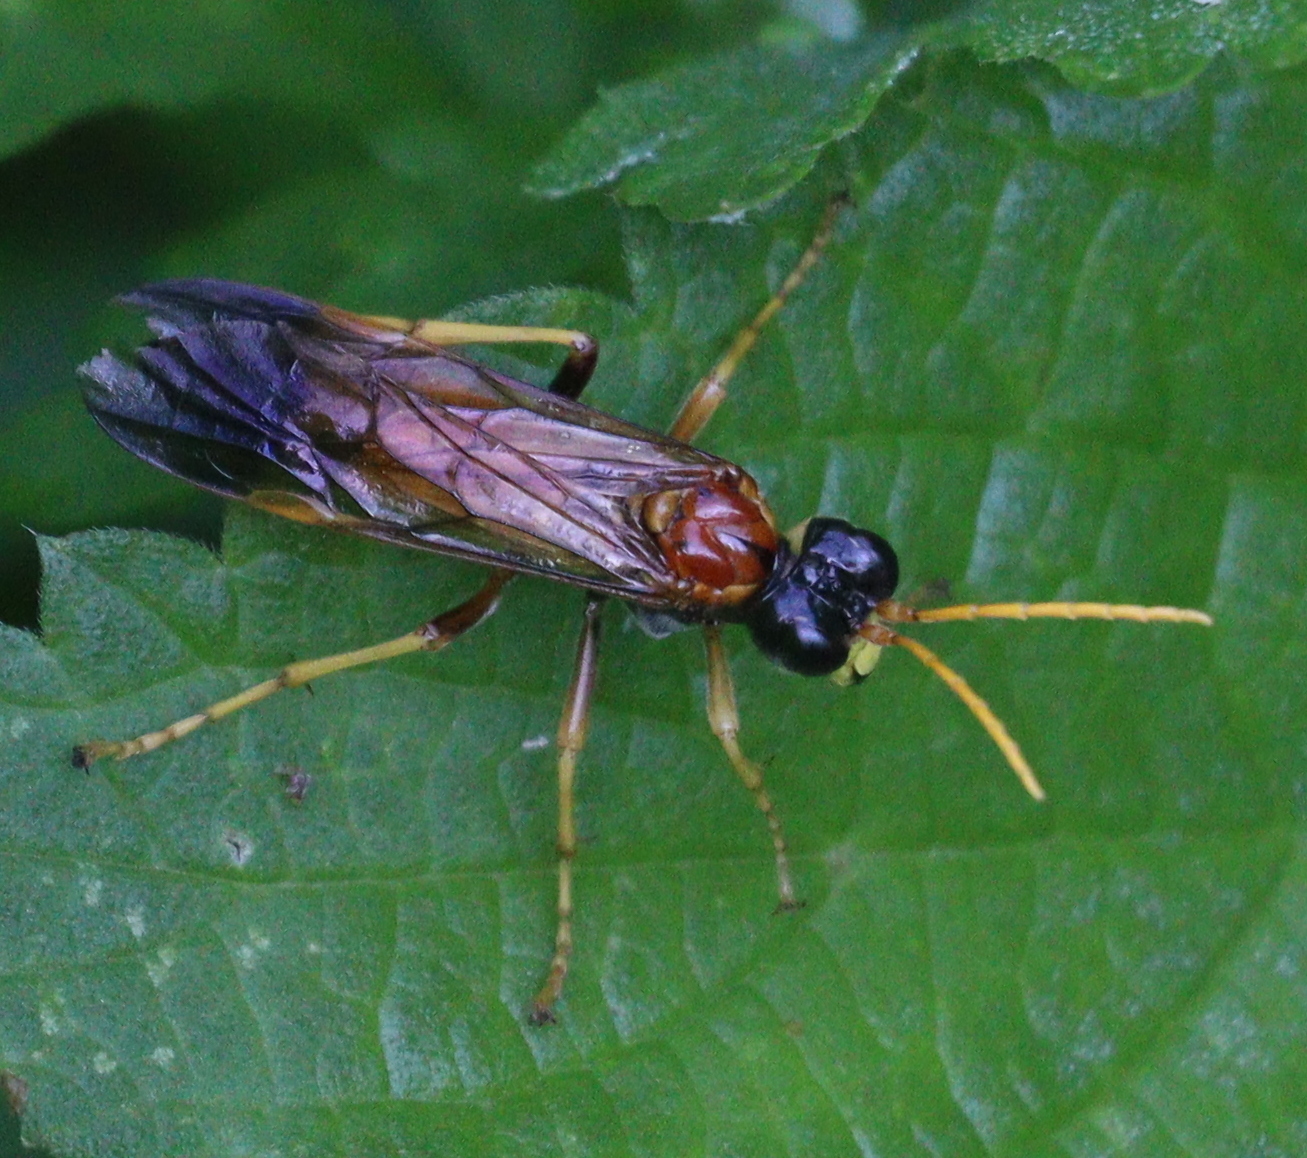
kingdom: Animalia
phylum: Arthropoda
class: Insecta
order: Hymenoptera
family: Tenthredinidae
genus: Tenthredo
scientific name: Tenthredo campestris
